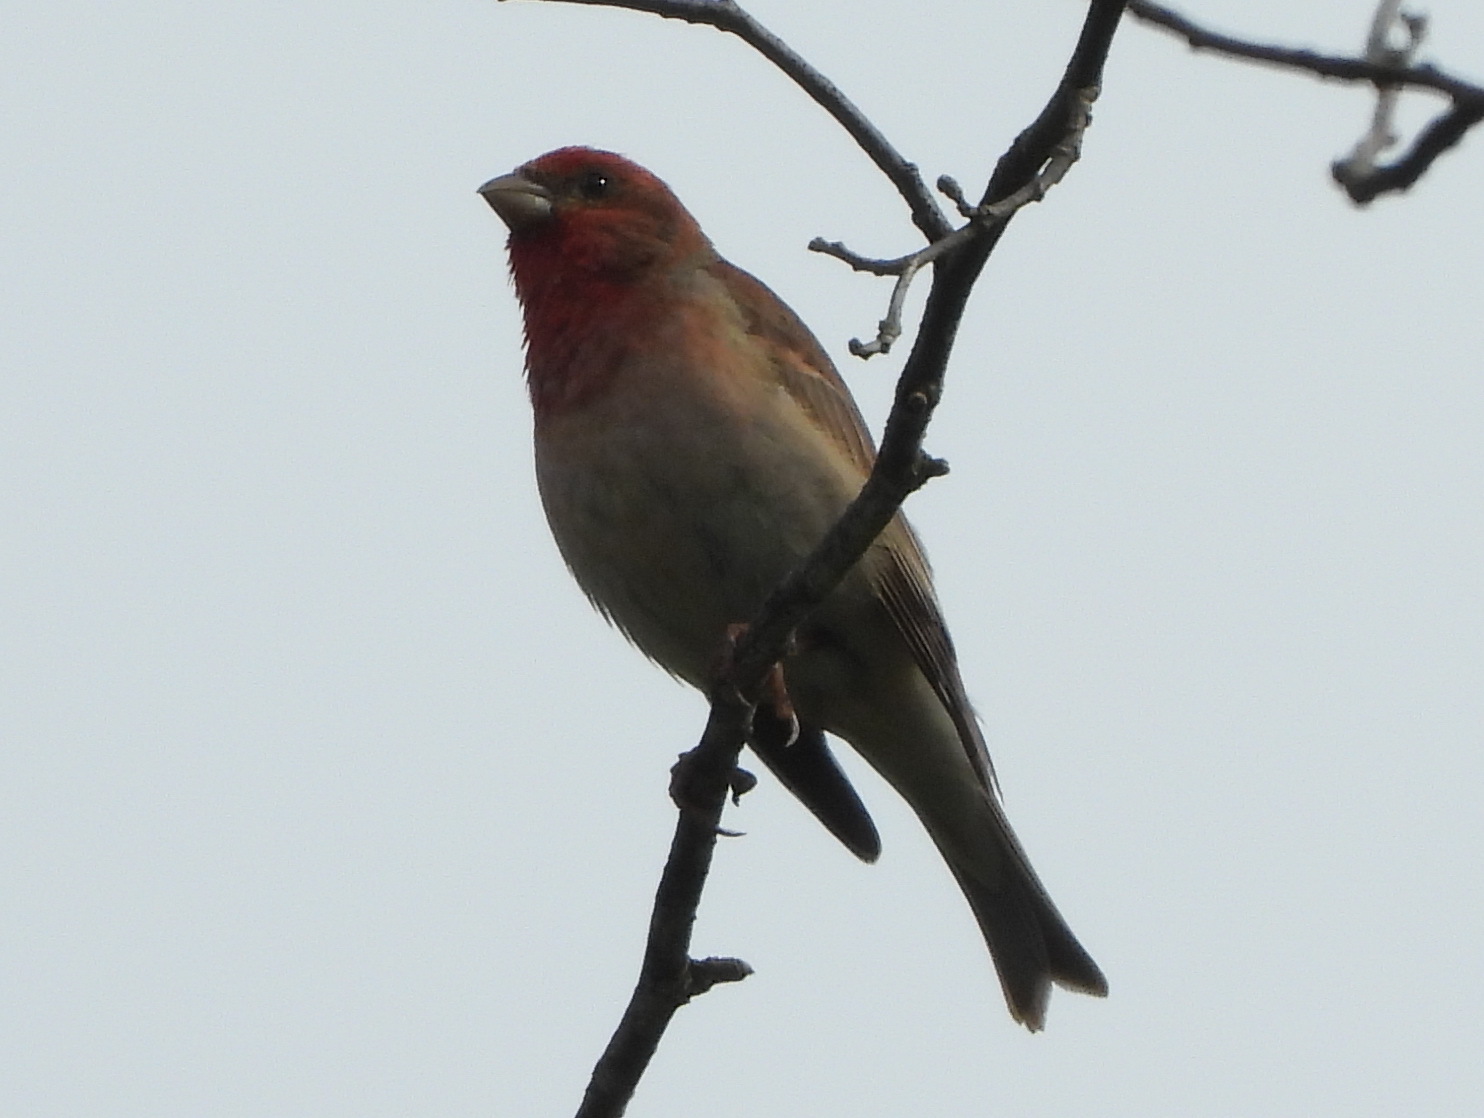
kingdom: Animalia
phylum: Chordata
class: Aves
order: Passeriformes
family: Fringillidae
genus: Carpodacus
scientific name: Carpodacus erythrinus
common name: Common rosefinch
